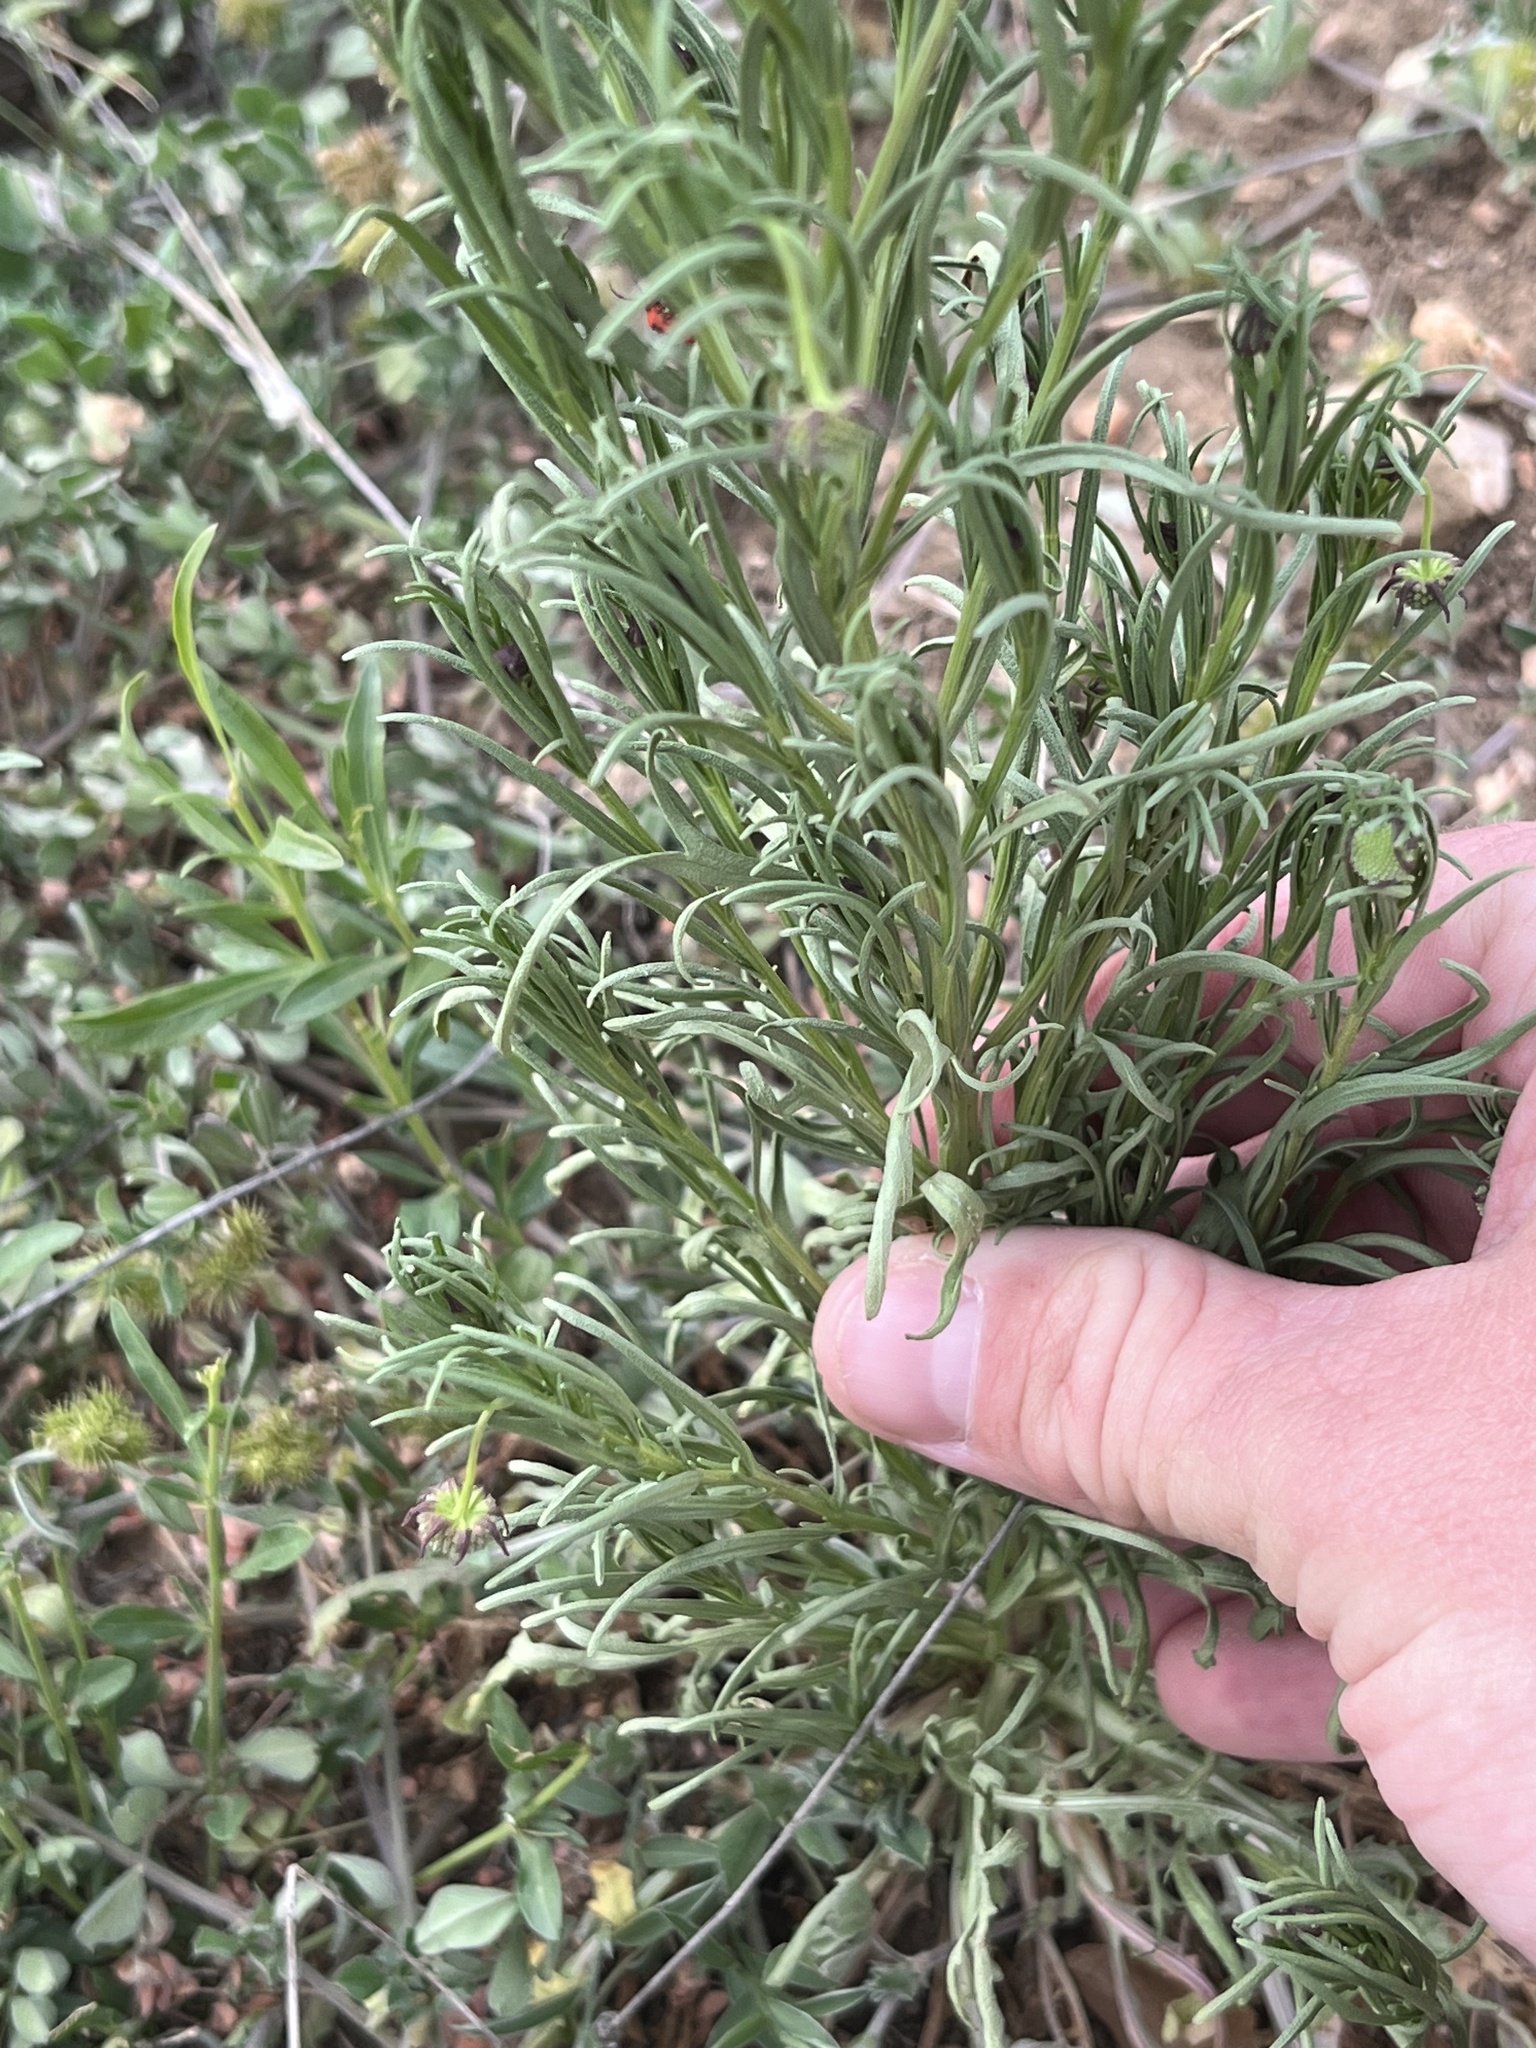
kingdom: Plantae
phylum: Tracheophyta
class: Magnoliopsida
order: Asterales
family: Asteraceae
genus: Helenium
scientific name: Helenium amarum
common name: Bitter sneezeweed
